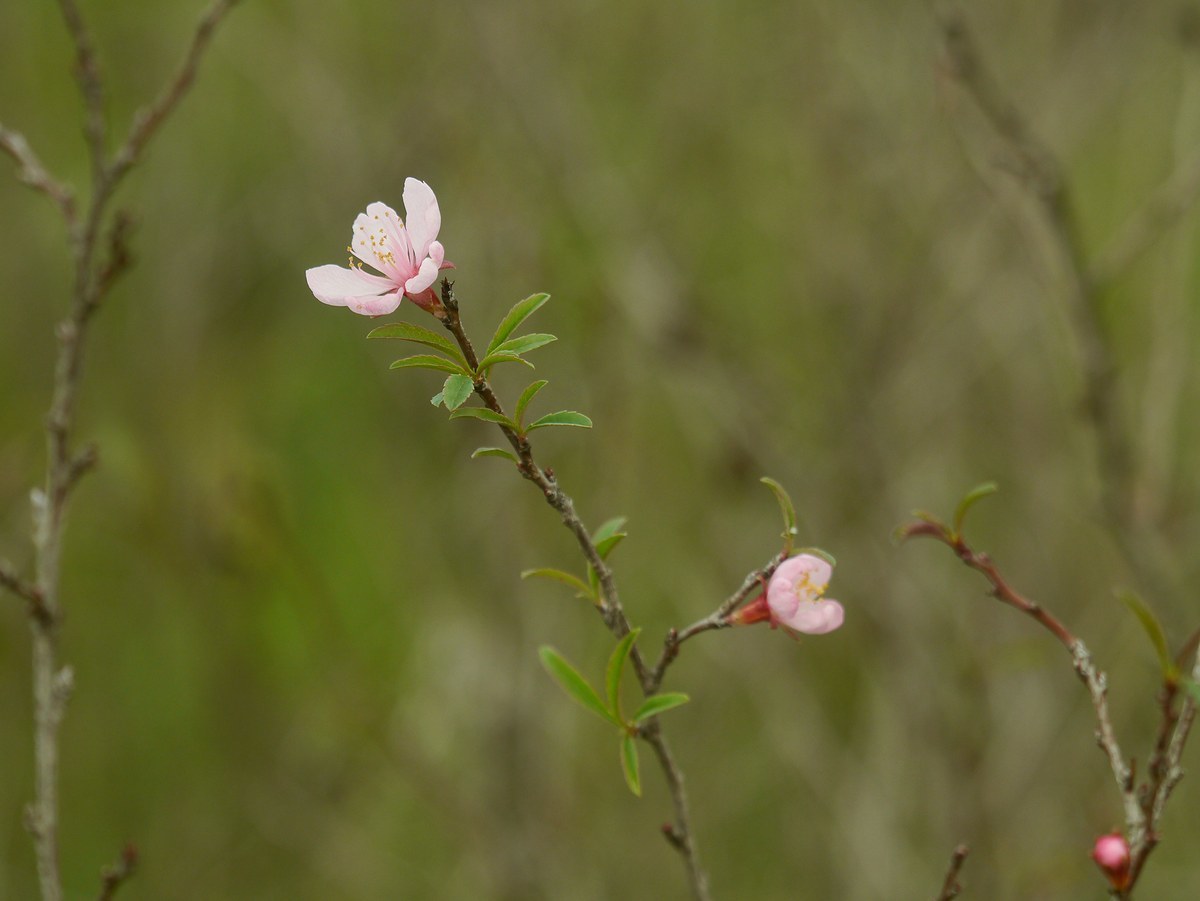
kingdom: Plantae
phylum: Tracheophyta
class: Magnoliopsida
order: Rosales
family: Rosaceae
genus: Prunus
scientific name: Prunus tenella
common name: Dwarf russian almond
